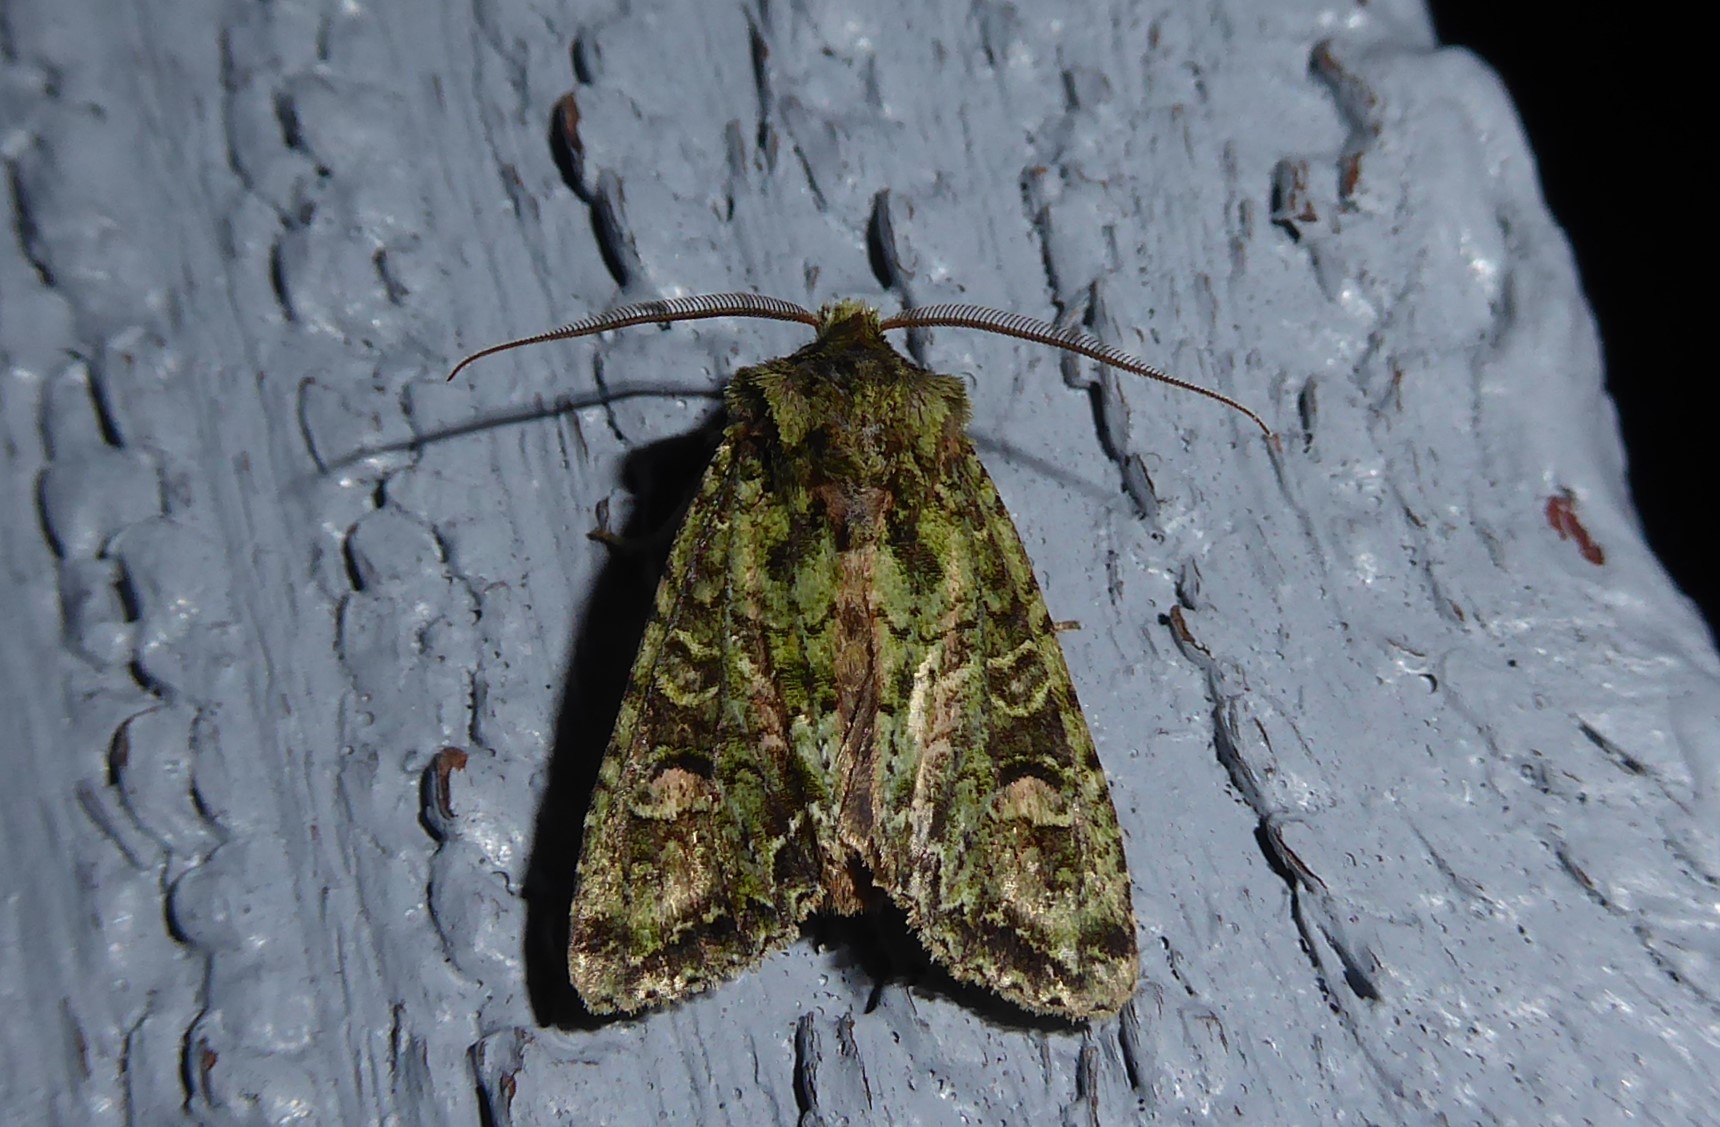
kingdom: Animalia
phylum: Arthropoda
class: Insecta
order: Lepidoptera
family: Noctuidae
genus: Ichneutica
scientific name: Ichneutica
